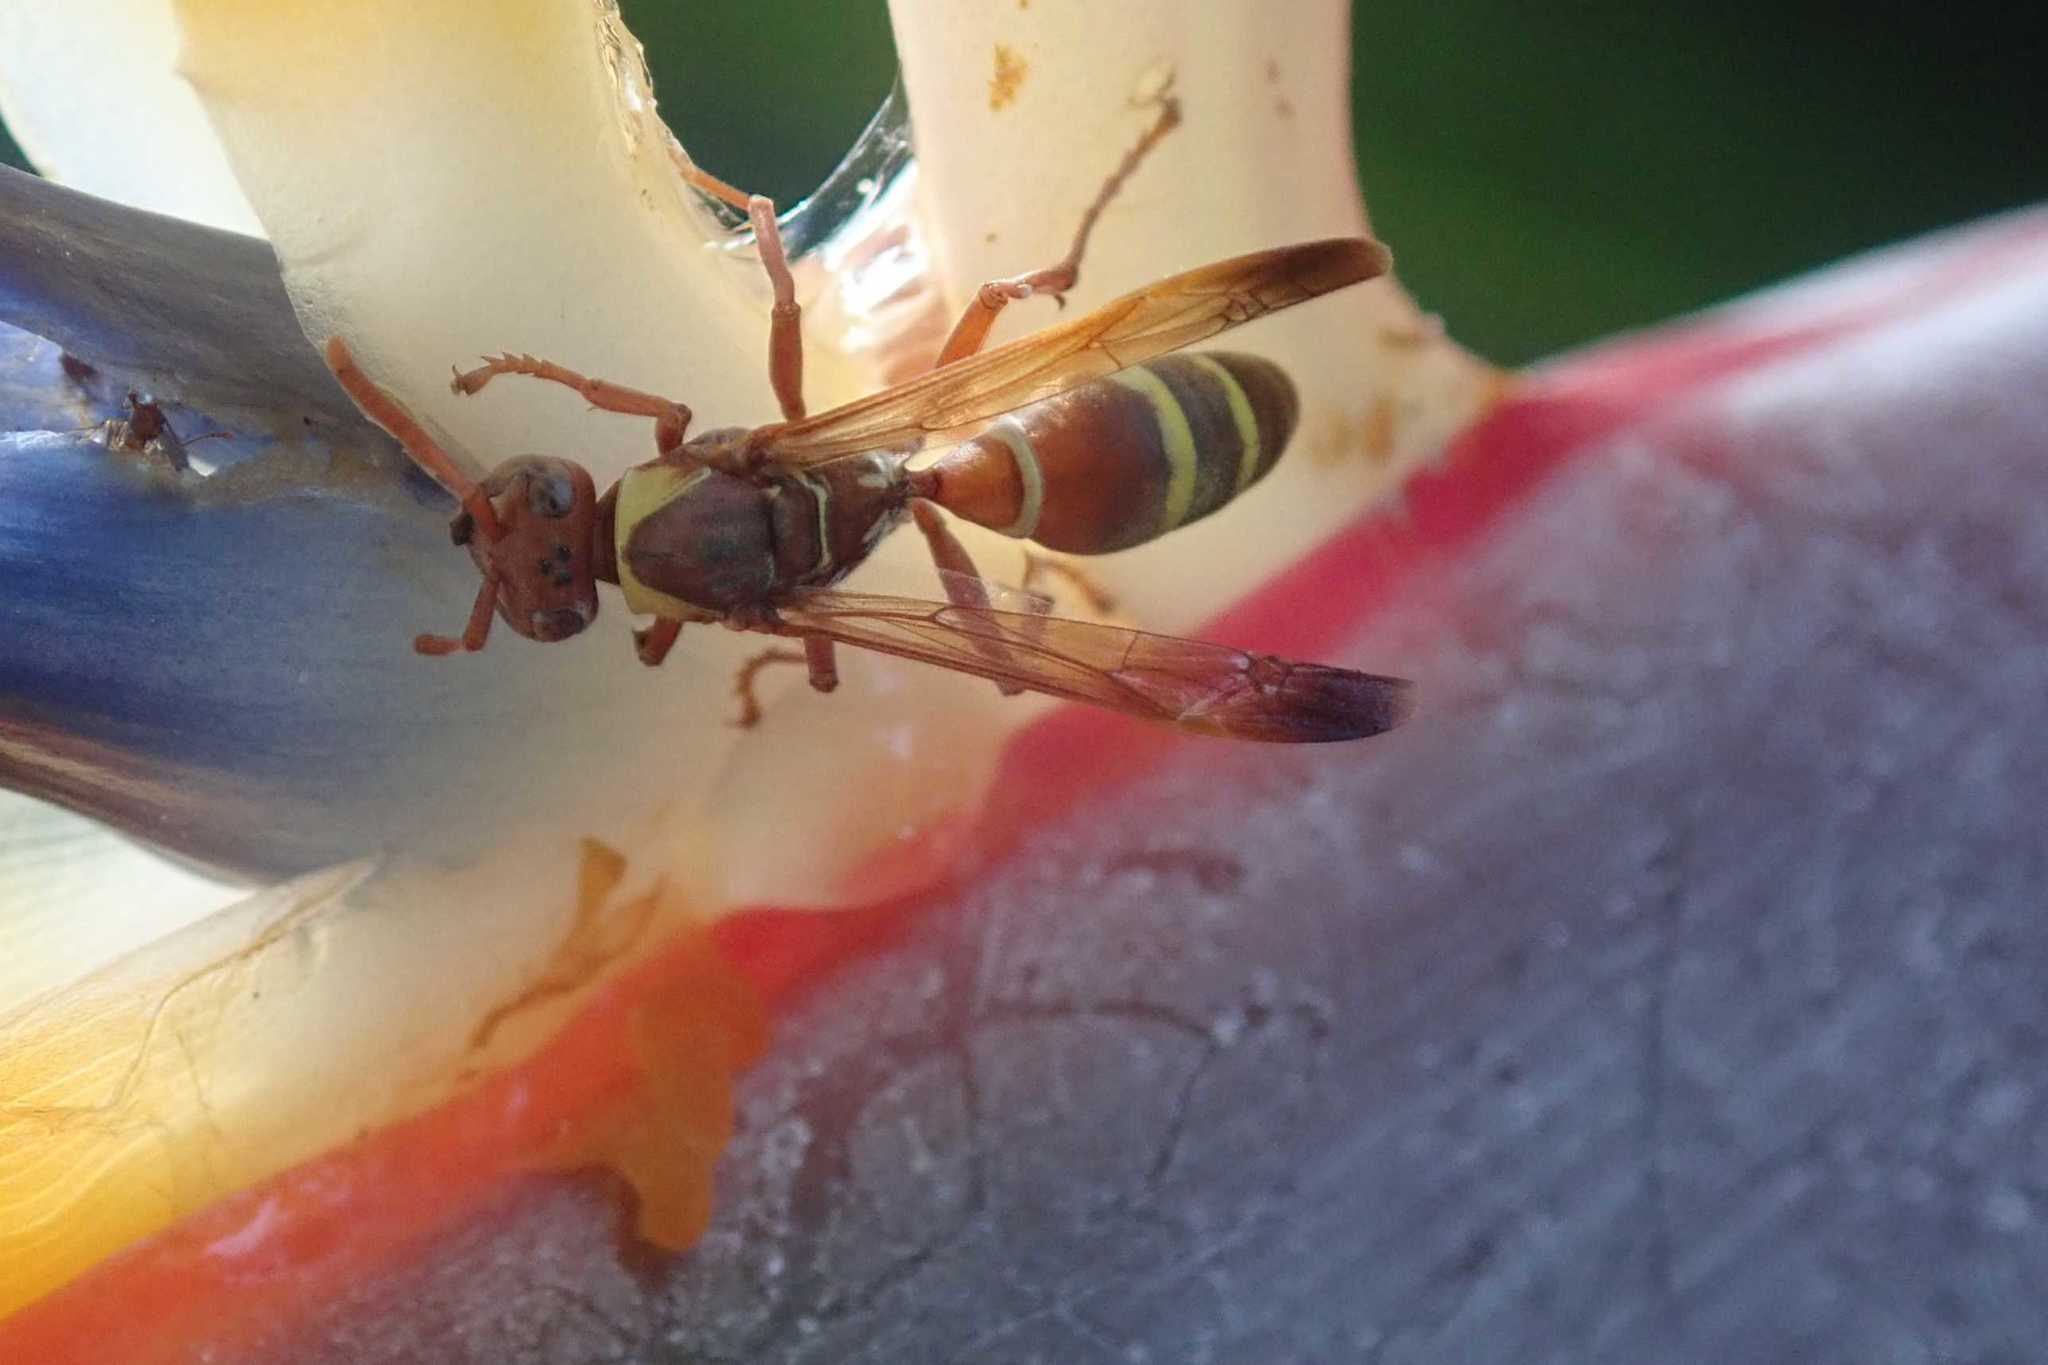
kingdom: Animalia
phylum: Arthropoda
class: Insecta
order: Hymenoptera
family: Eumenidae
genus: Polistes
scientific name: Polistes badius
